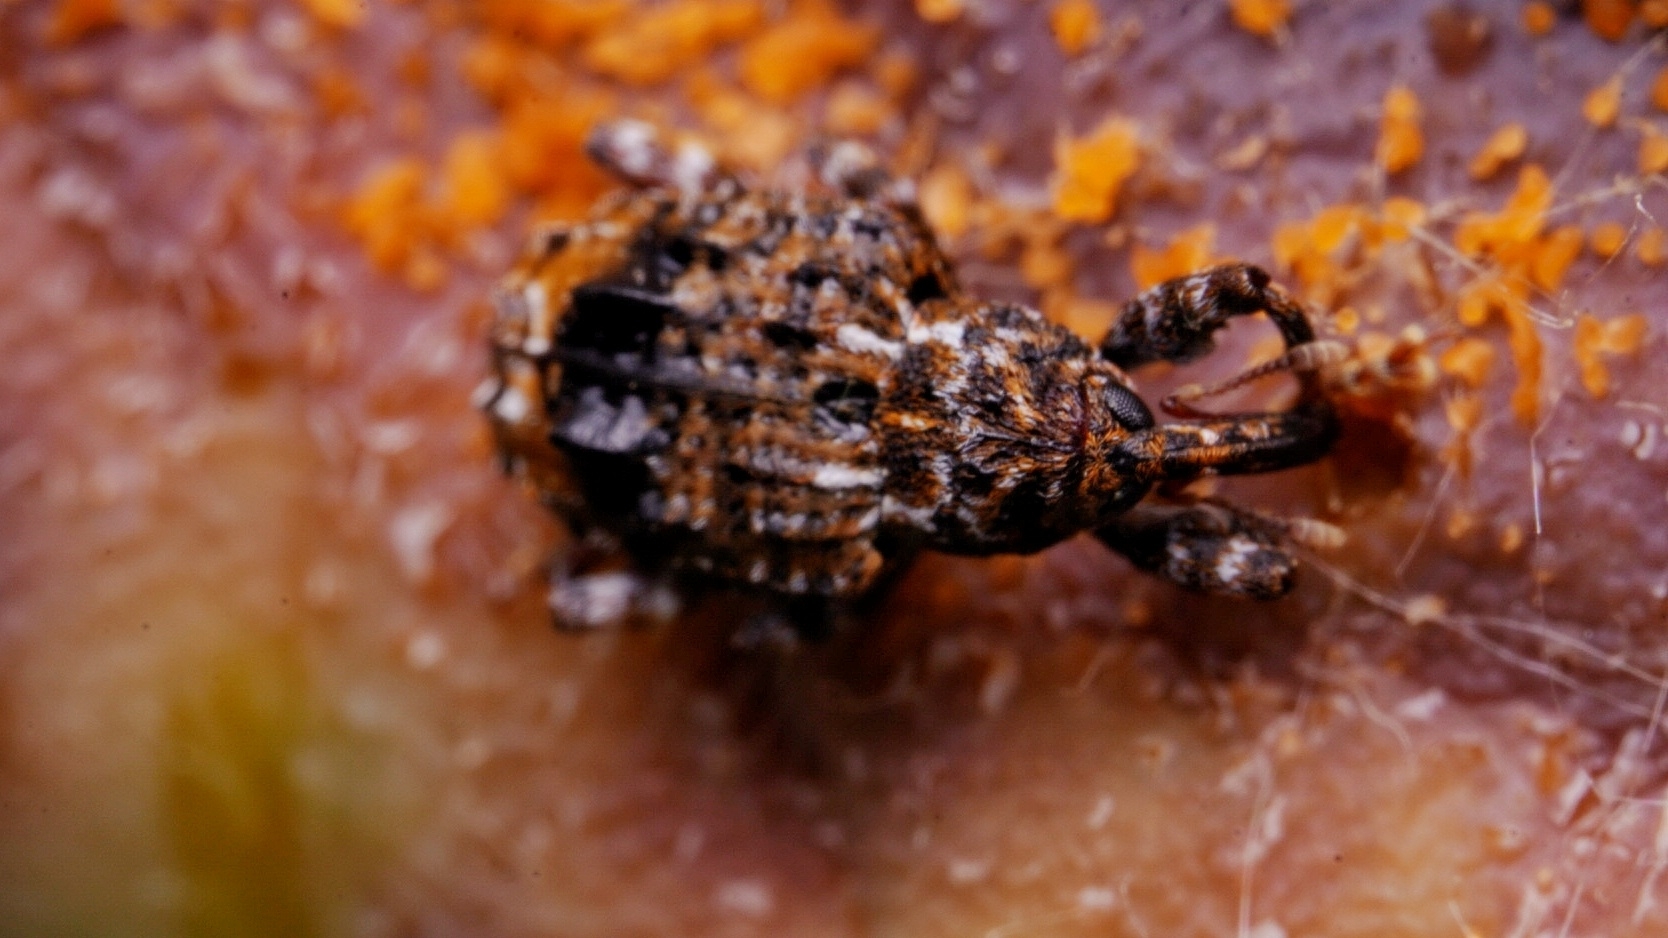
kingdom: Animalia
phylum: Arthropoda
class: Insecta
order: Coleoptera
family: Curculionidae
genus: Conotrachelus
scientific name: Conotrachelus nenuphar
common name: Plum curculio
